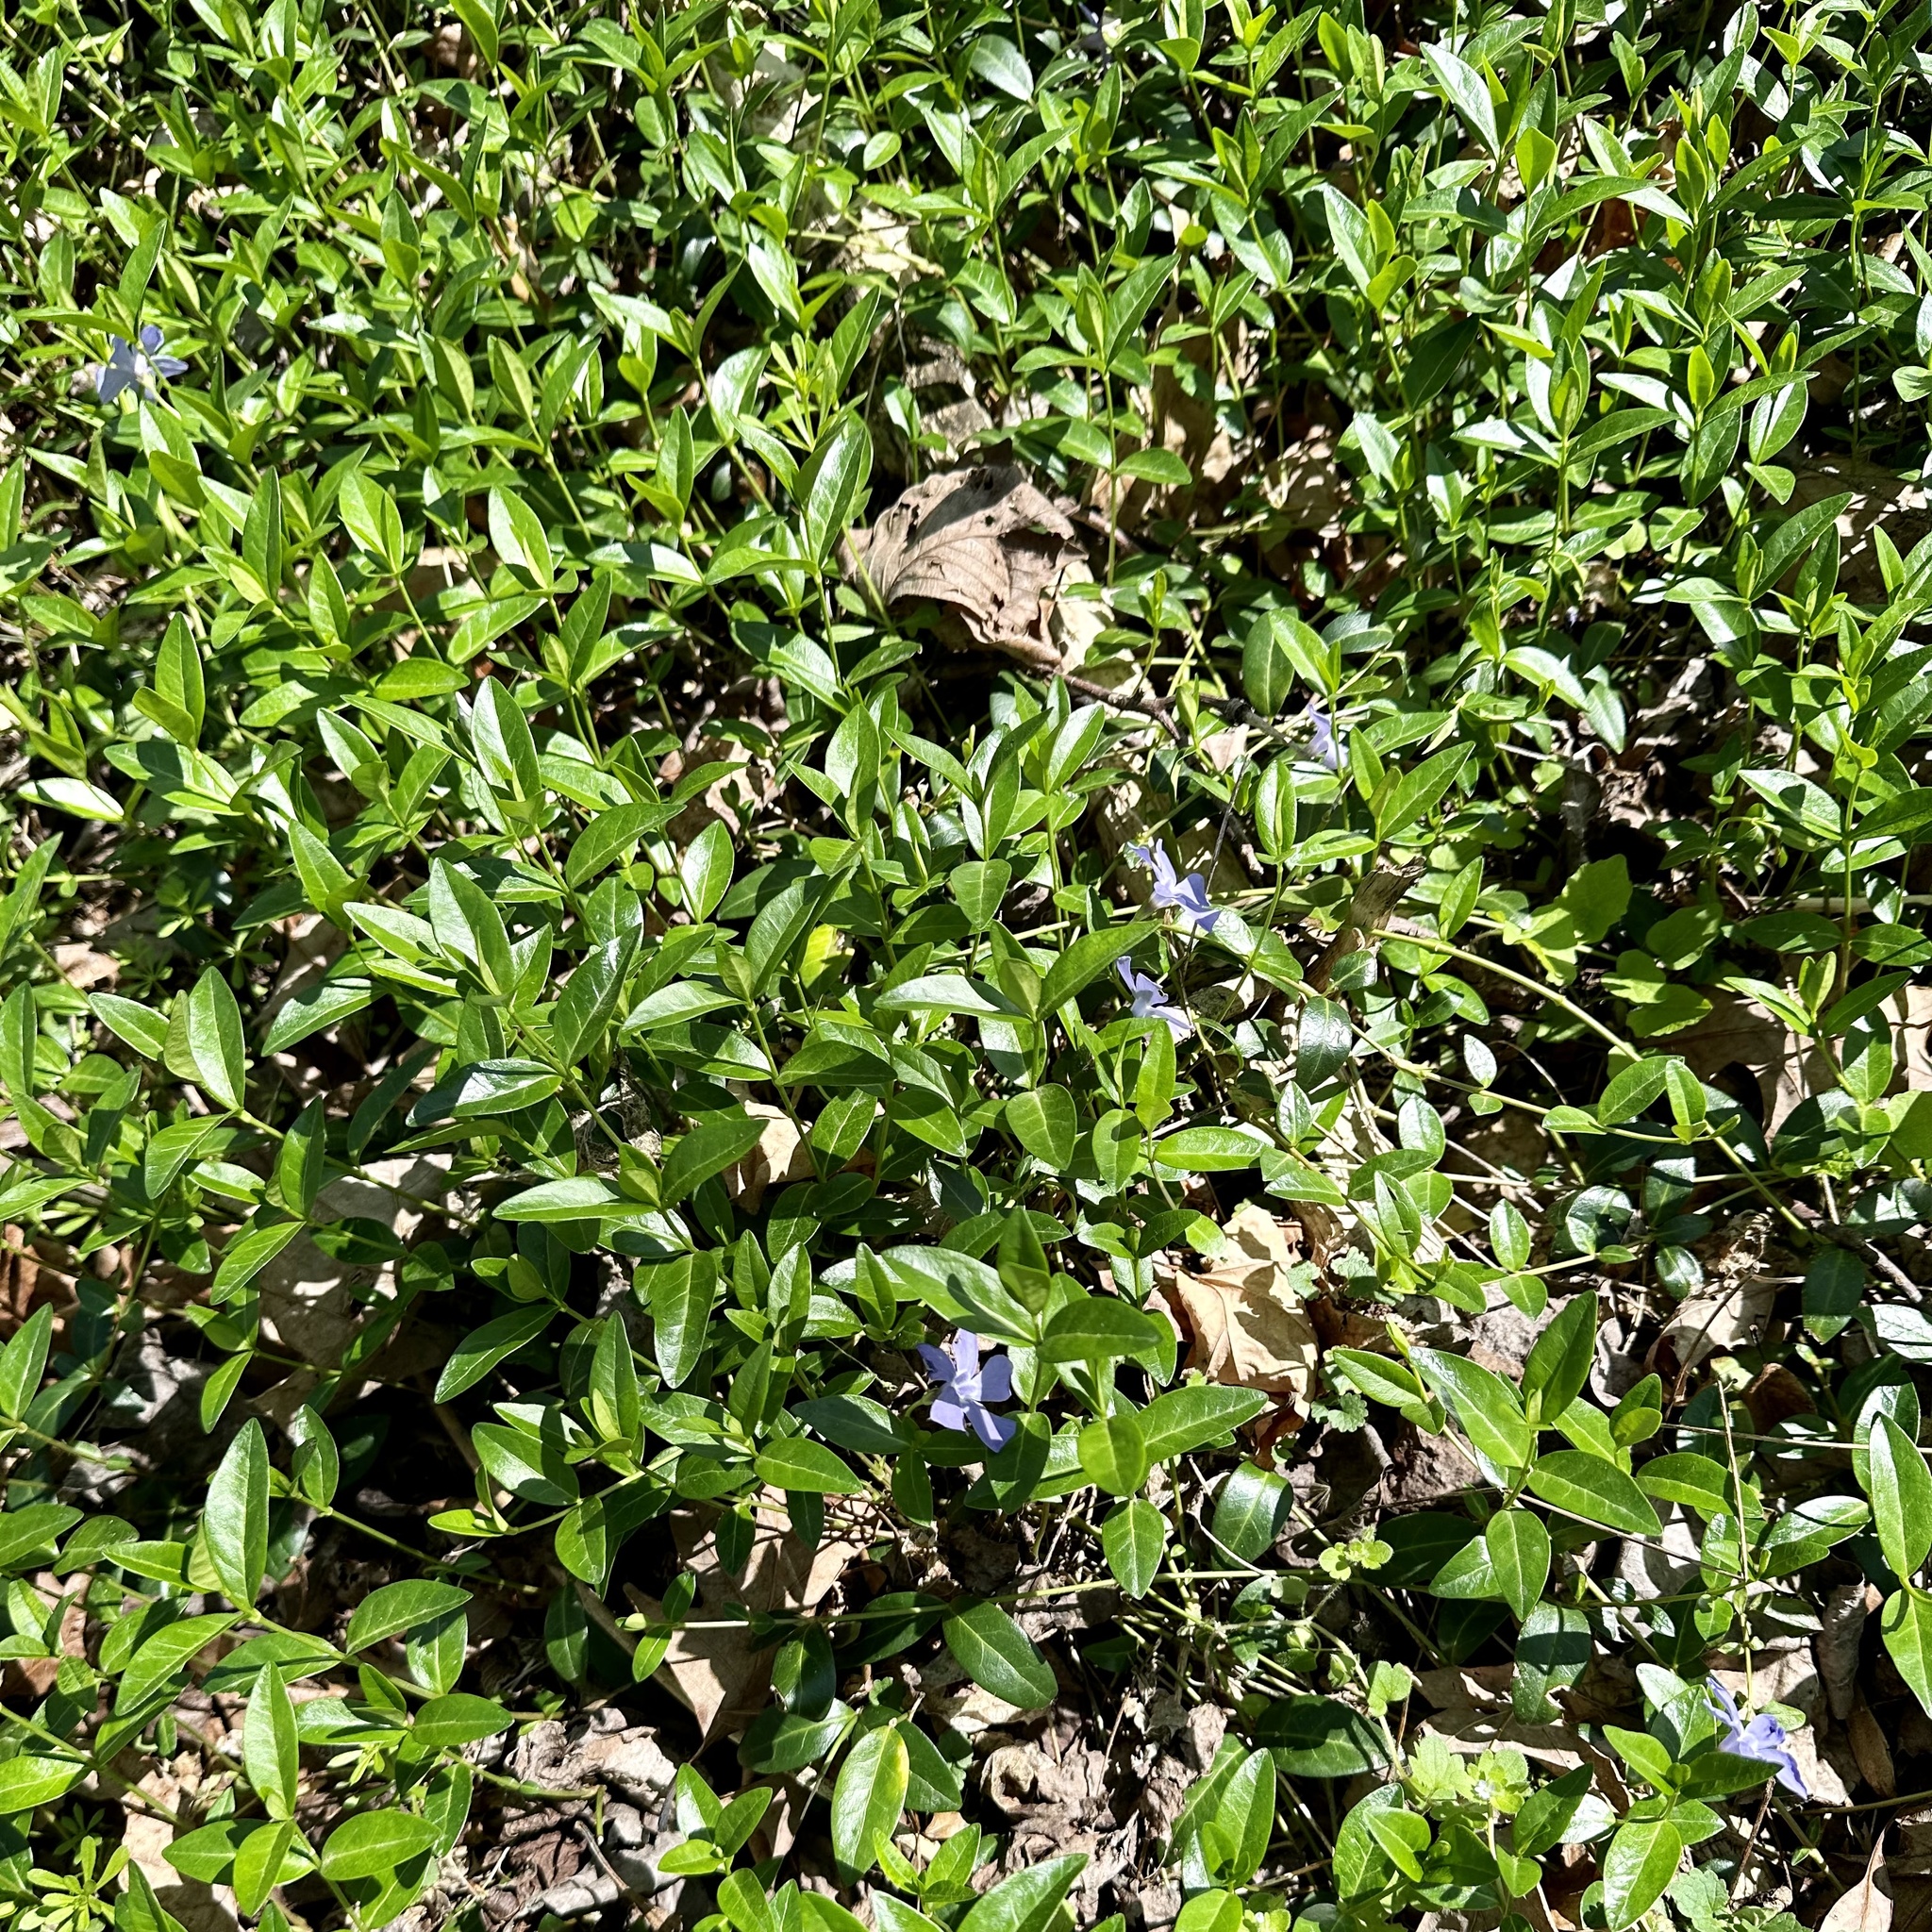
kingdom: Plantae
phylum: Tracheophyta
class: Magnoliopsida
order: Gentianales
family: Apocynaceae
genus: Vinca
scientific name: Vinca minor
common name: Lesser periwinkle
